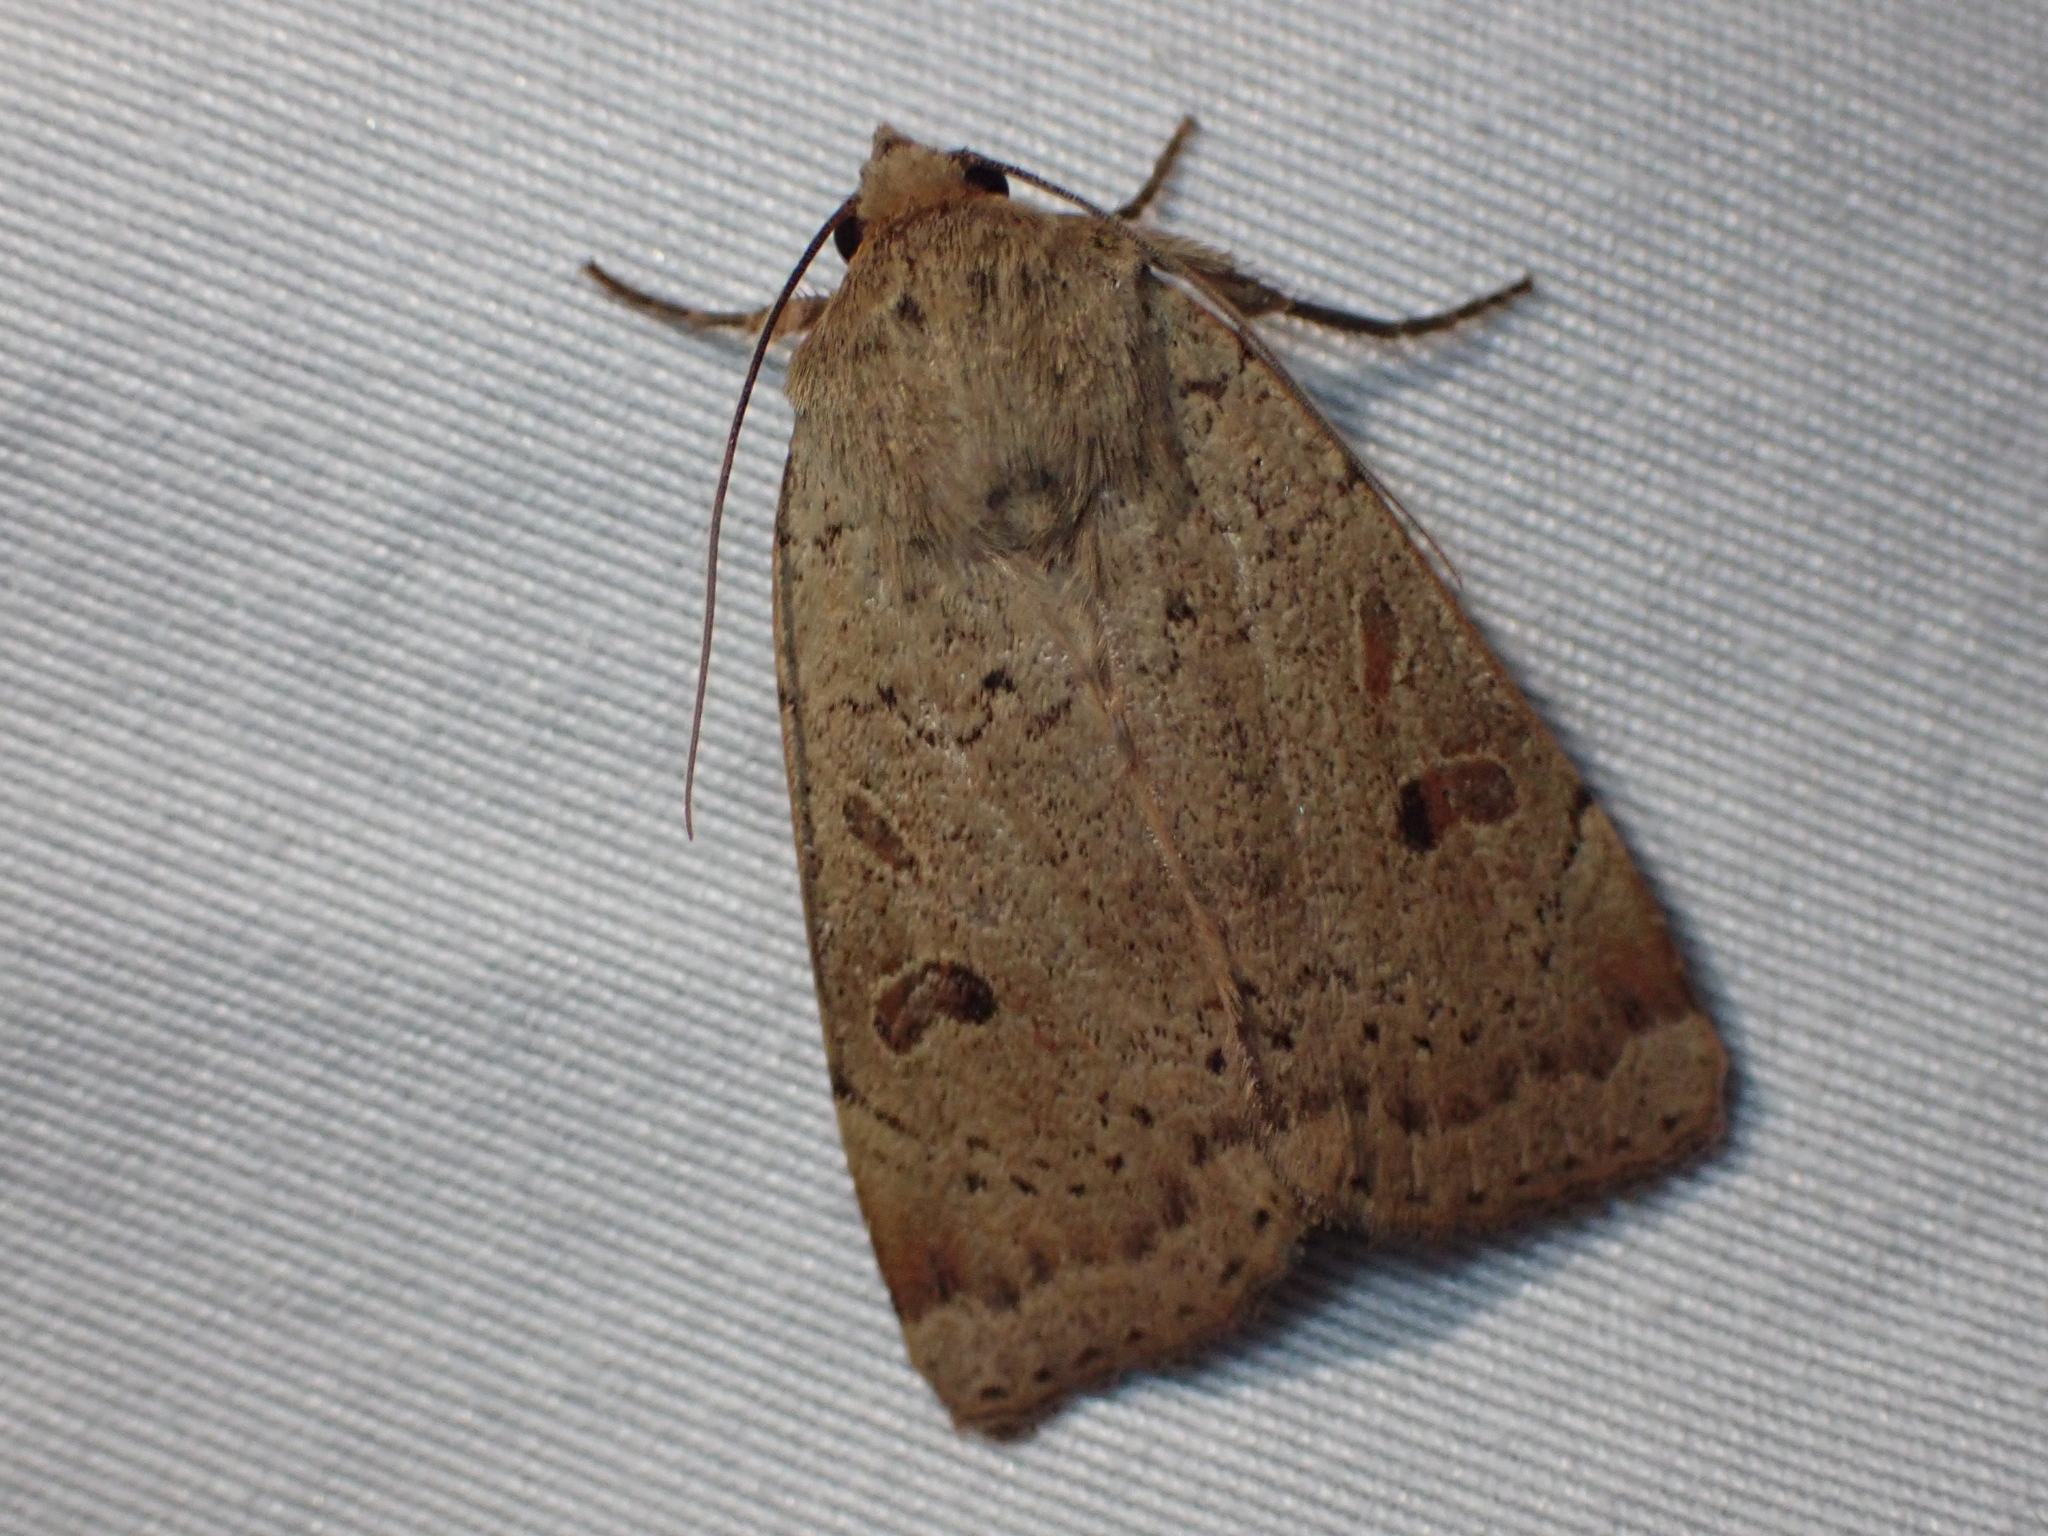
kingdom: Animalia
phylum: Arthropoda
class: Insecta
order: Lepidoptera
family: Noctuidae
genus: Noctua
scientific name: Noctua comes
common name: Lesser yellow underwing
